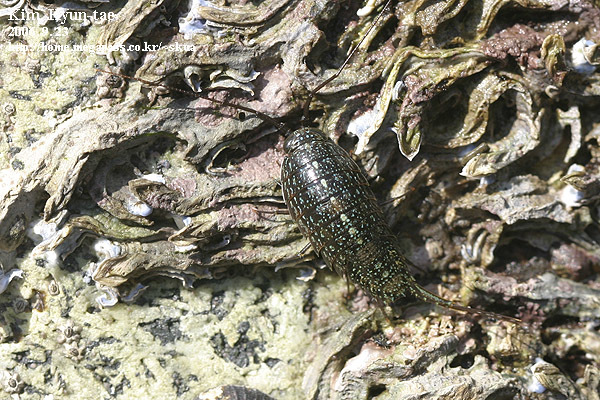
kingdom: Animalia
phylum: Arthropoda
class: Malacostraca
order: Isopoda
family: Ligiidae
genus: Ligia
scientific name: Ligia exotica
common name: Wharf roach
